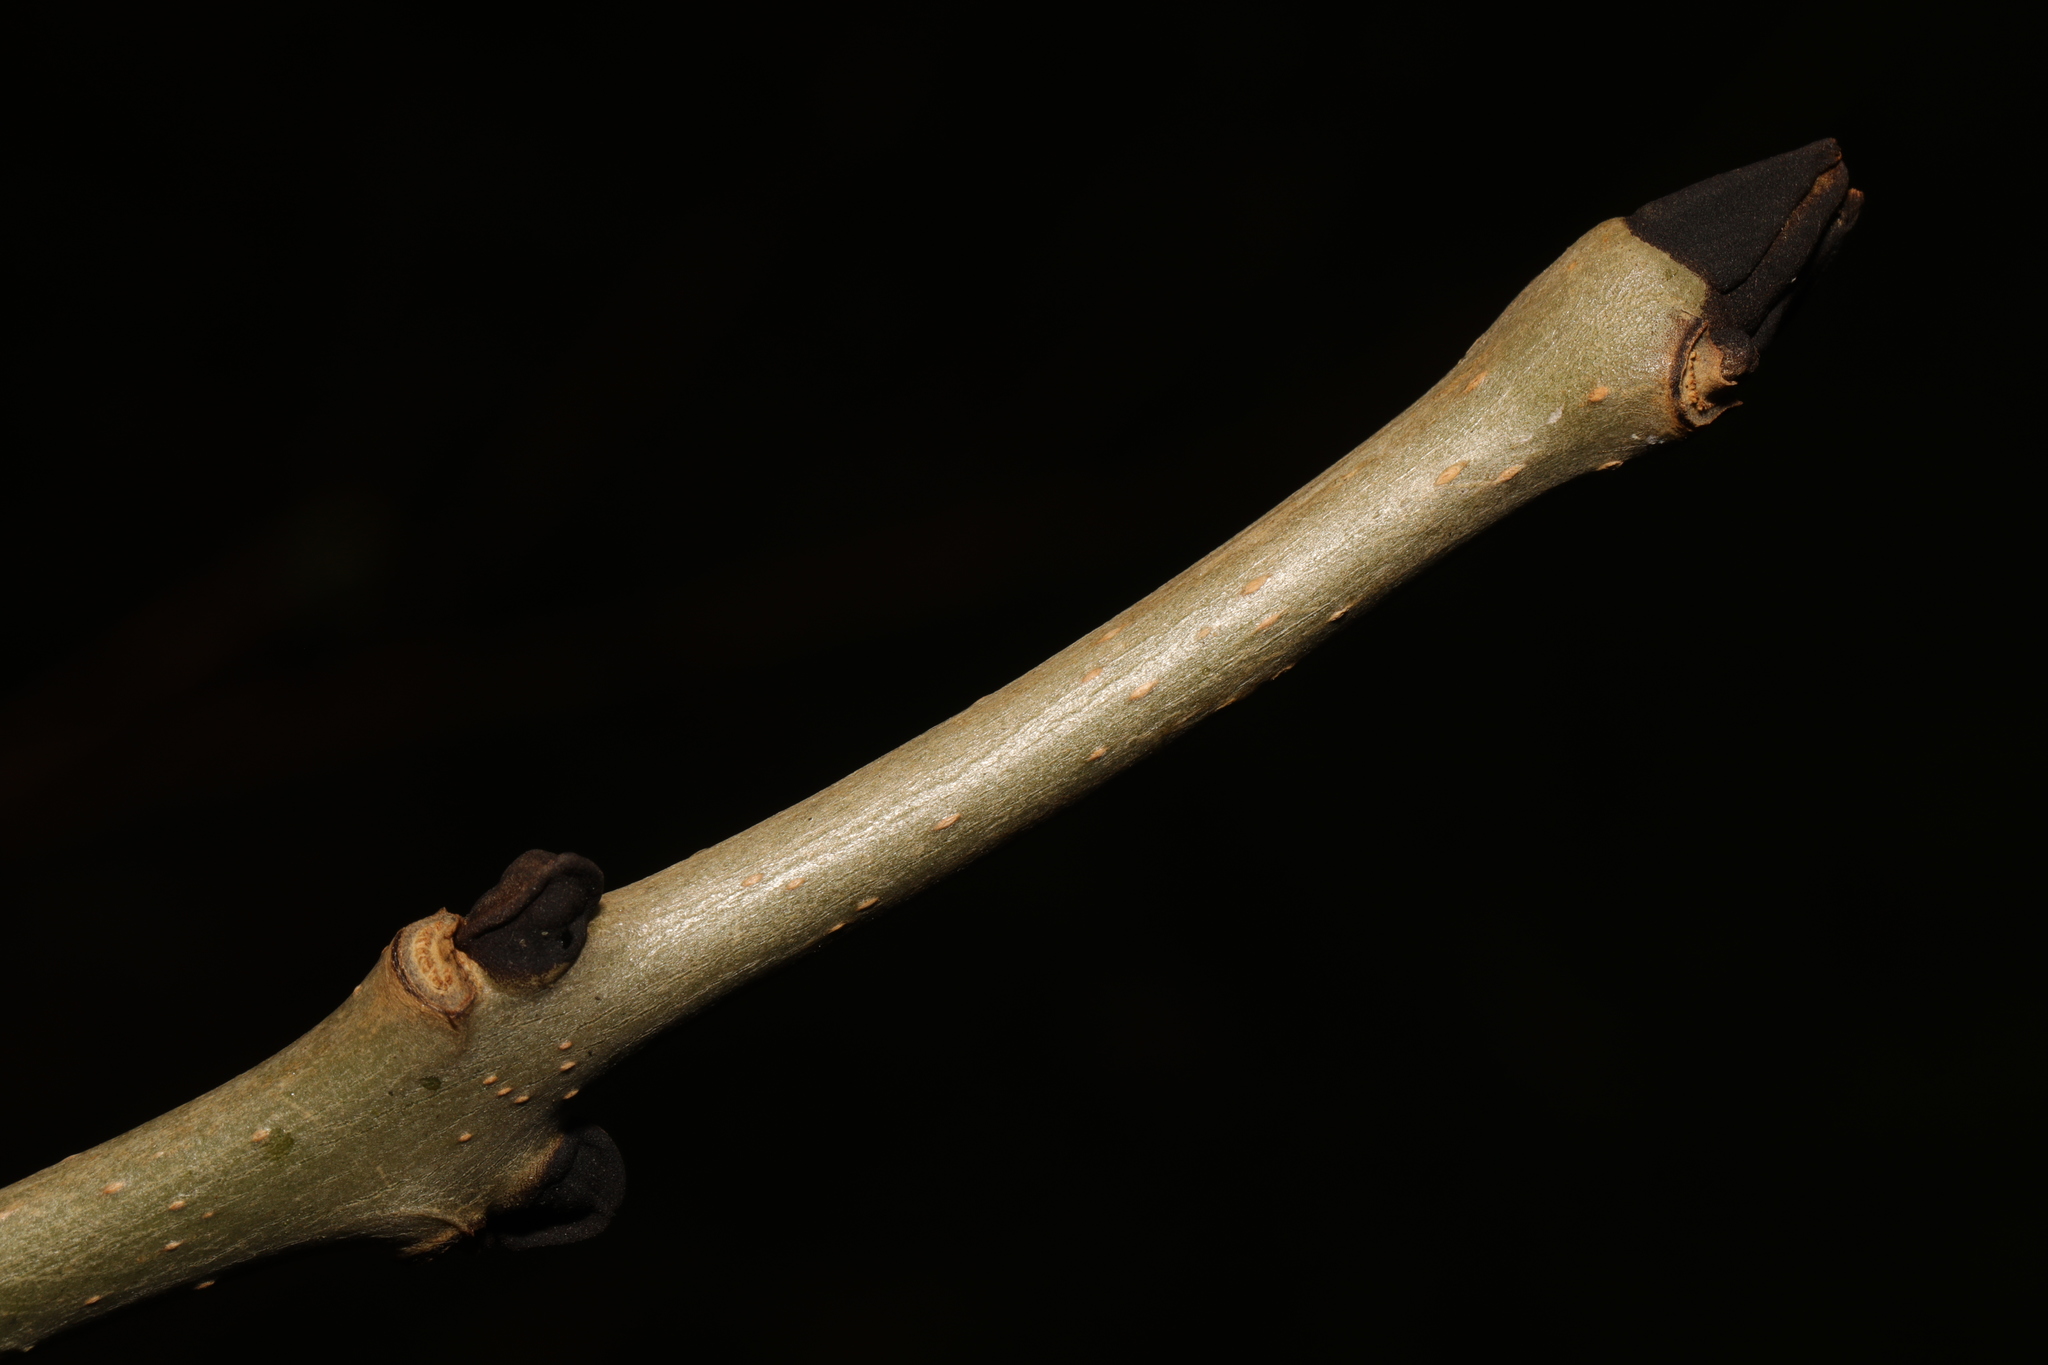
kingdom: Plantae
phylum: Tracheophyta
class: Magnoliopsida
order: Lamiales
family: Oleaceae
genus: Fraxinus
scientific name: Fraxinus excelsior
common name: European ash
